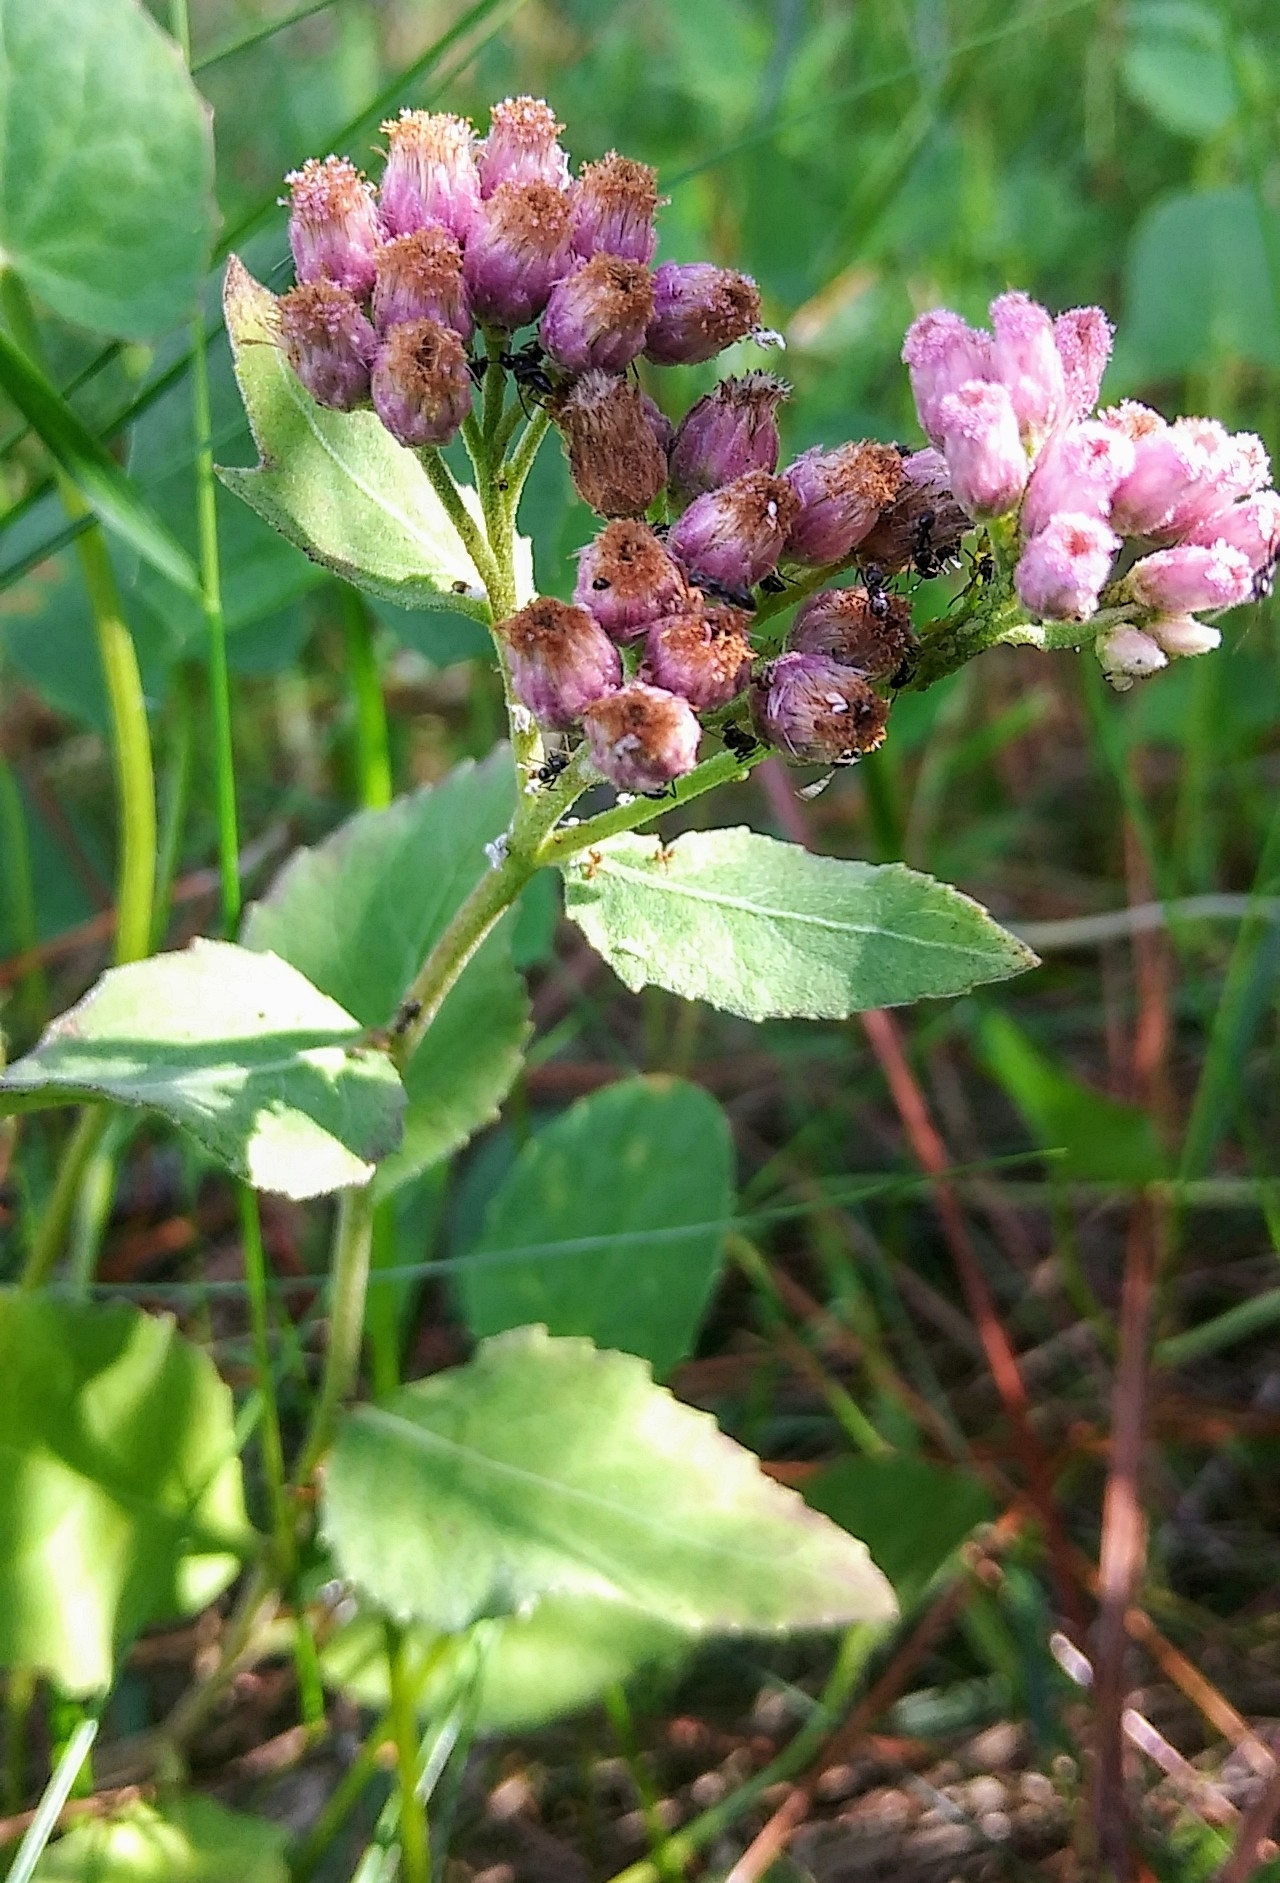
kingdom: Plantae
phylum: Tracheophyta
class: Magnoliopsida
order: Asterales
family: Asteraceae
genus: Pluchea
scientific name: Pluchea odorata
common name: Saltmarsh fleabane
